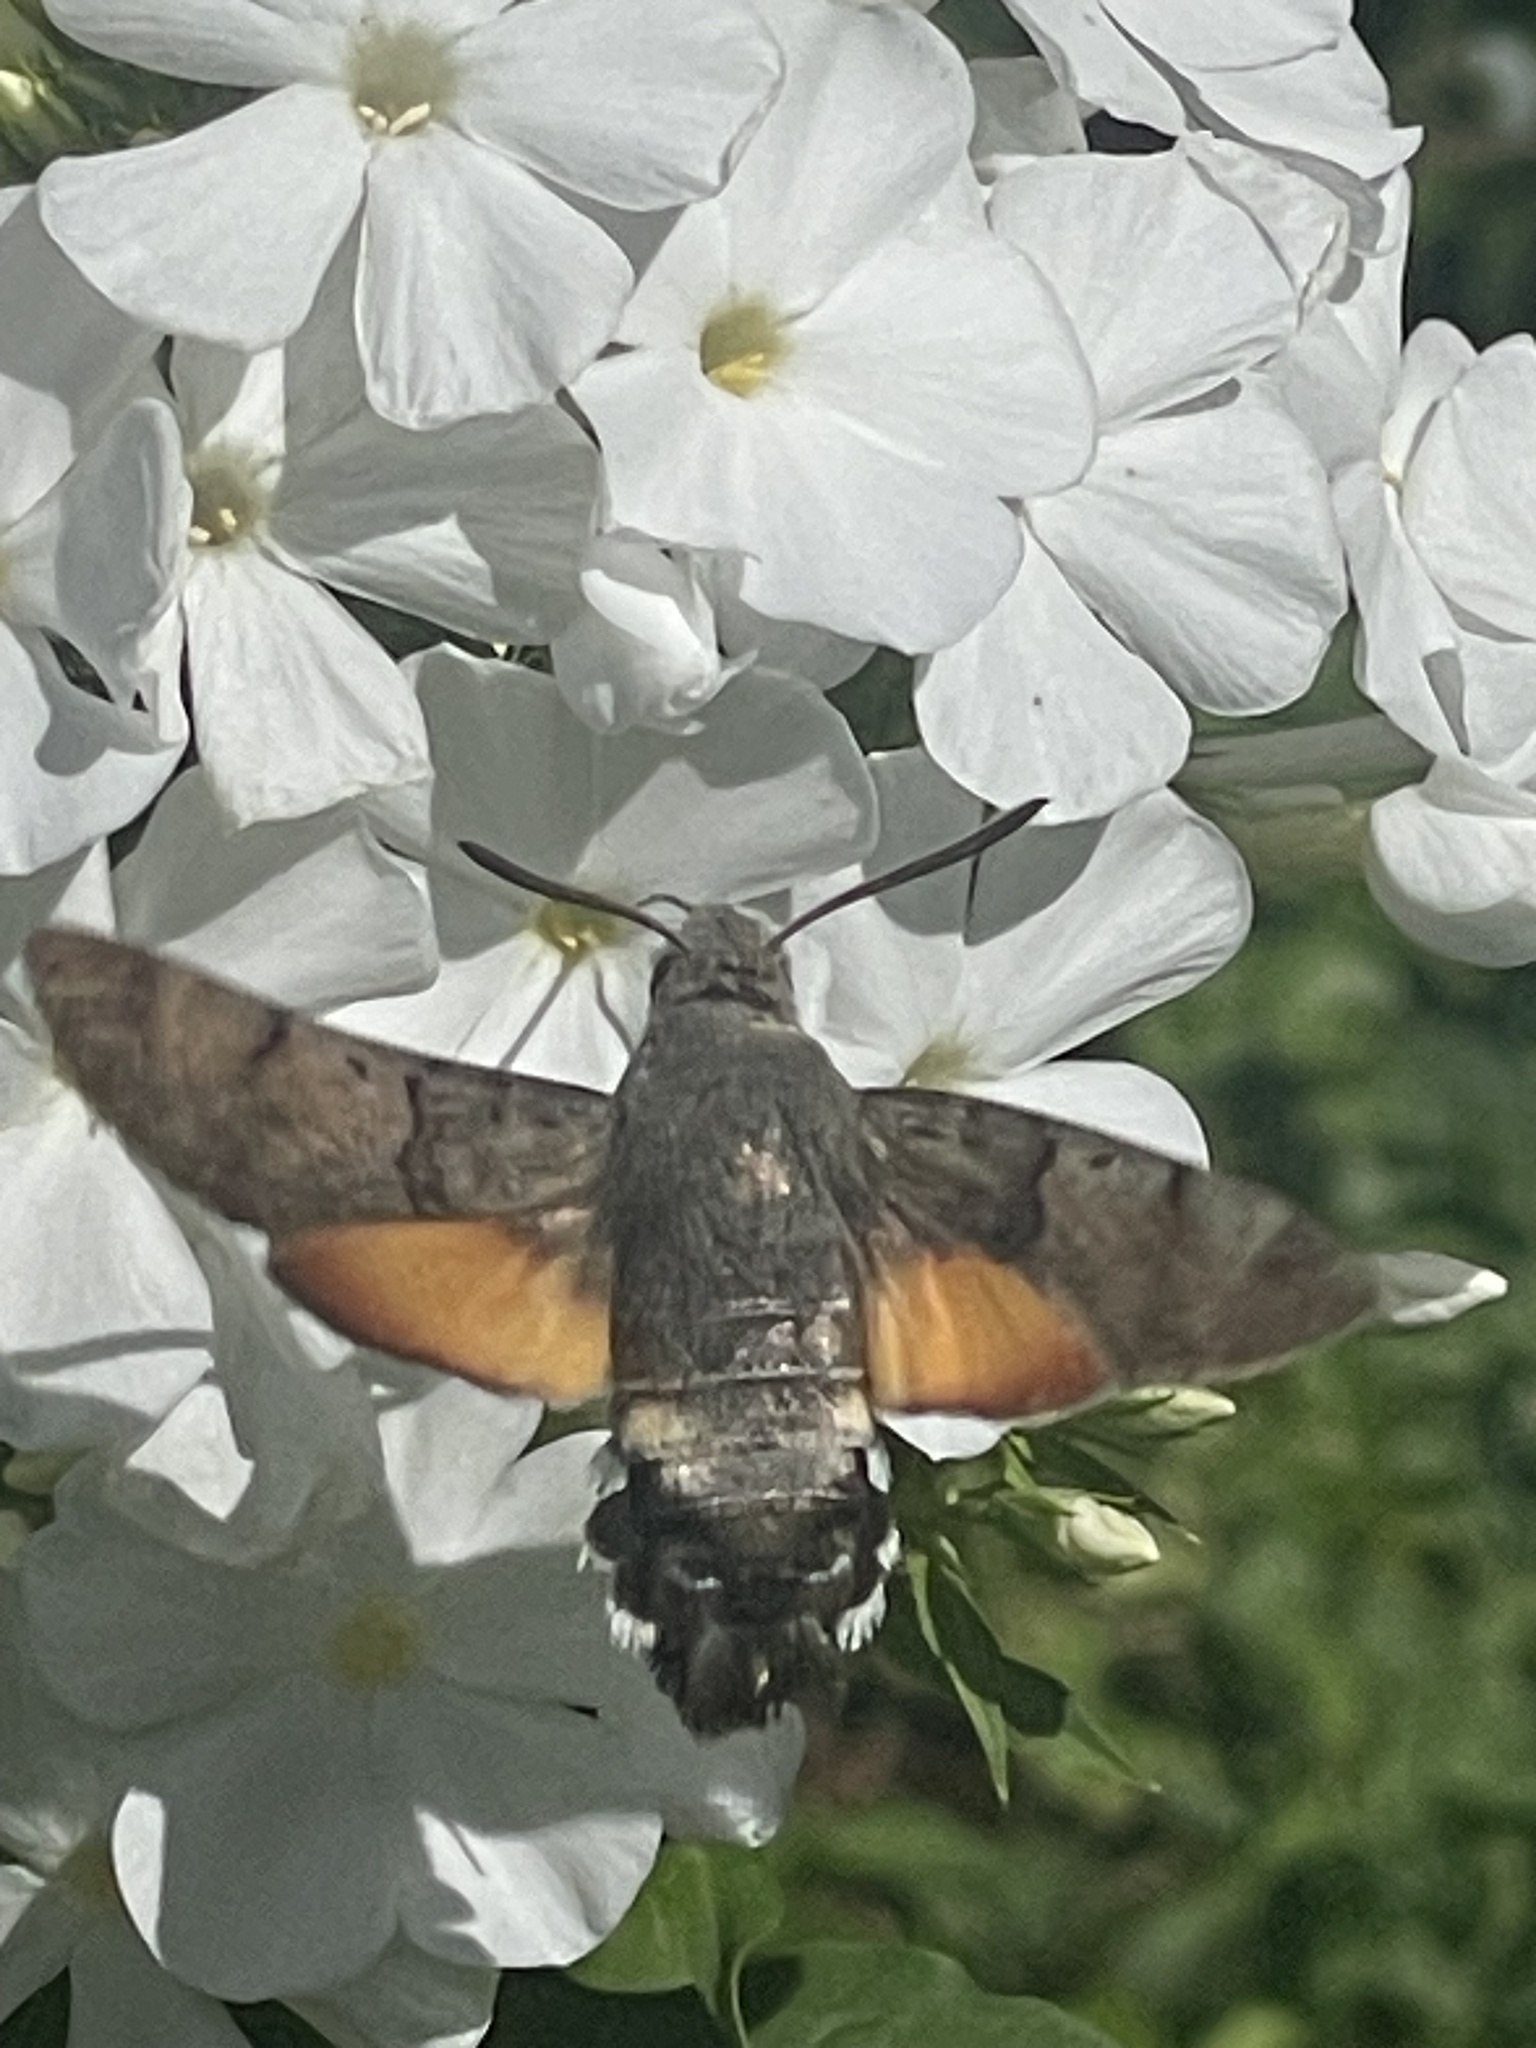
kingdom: Animalia
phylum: Arthropoda
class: Insecta
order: Lepidoptera
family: Sphingidae
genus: Macroglossum
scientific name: Macroglossum stellatarum
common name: Humming-bird hawk-moth
